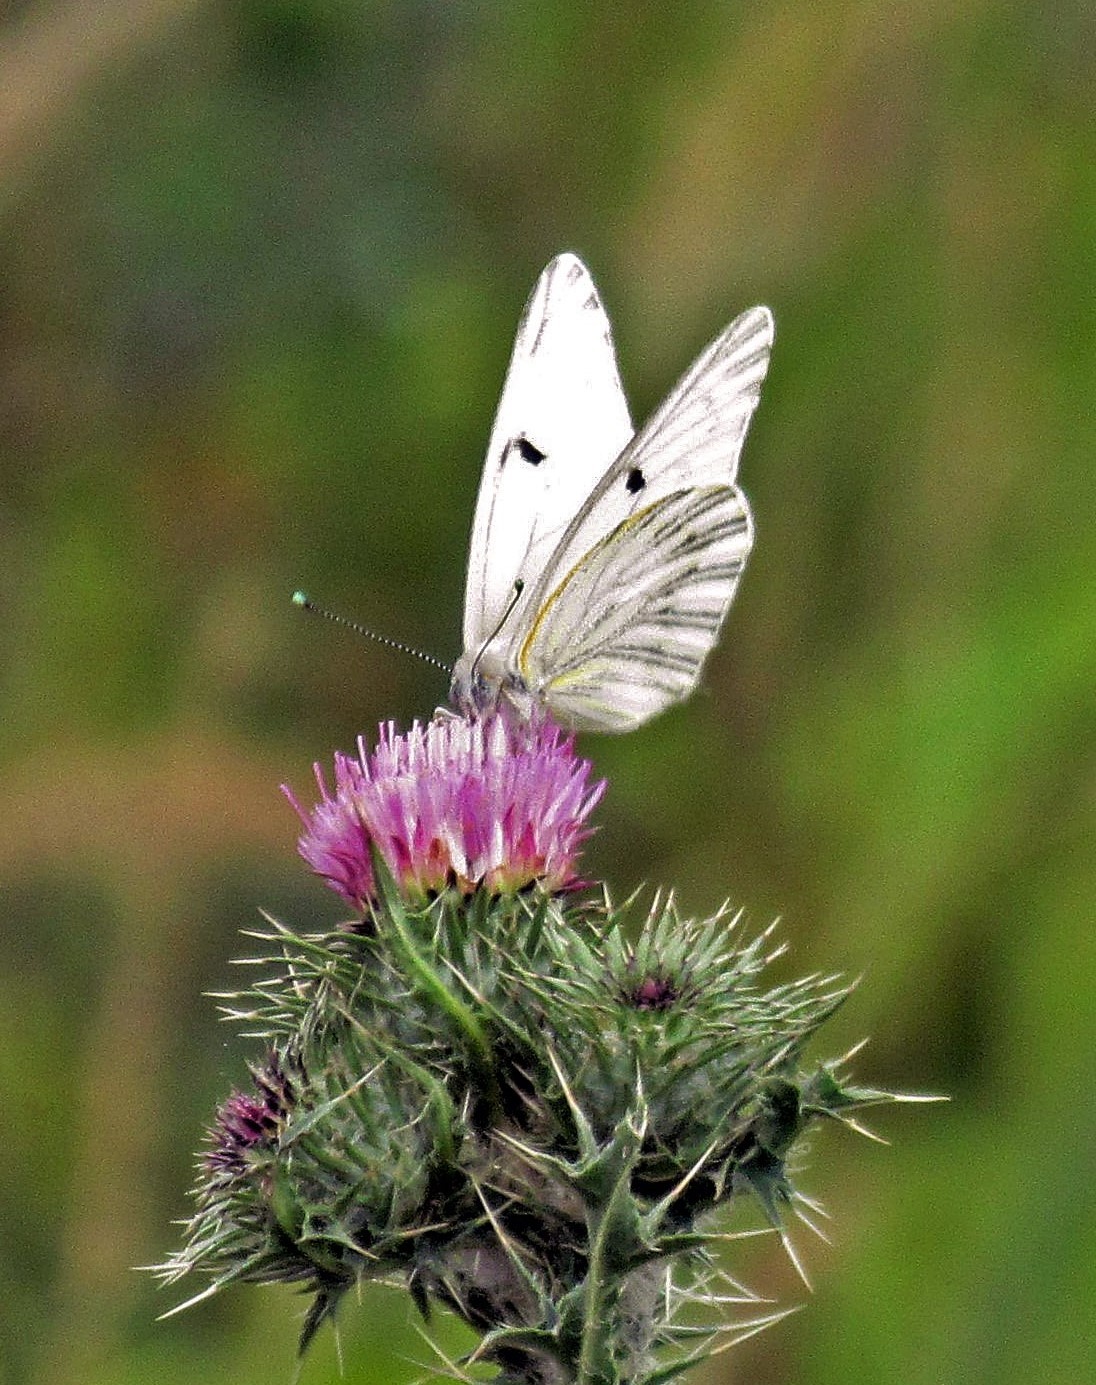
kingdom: Animalia
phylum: Arthropoda
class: Insecta
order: Lepidoptera
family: Pieridae
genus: Tatochila
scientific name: Tatochila mercedis
